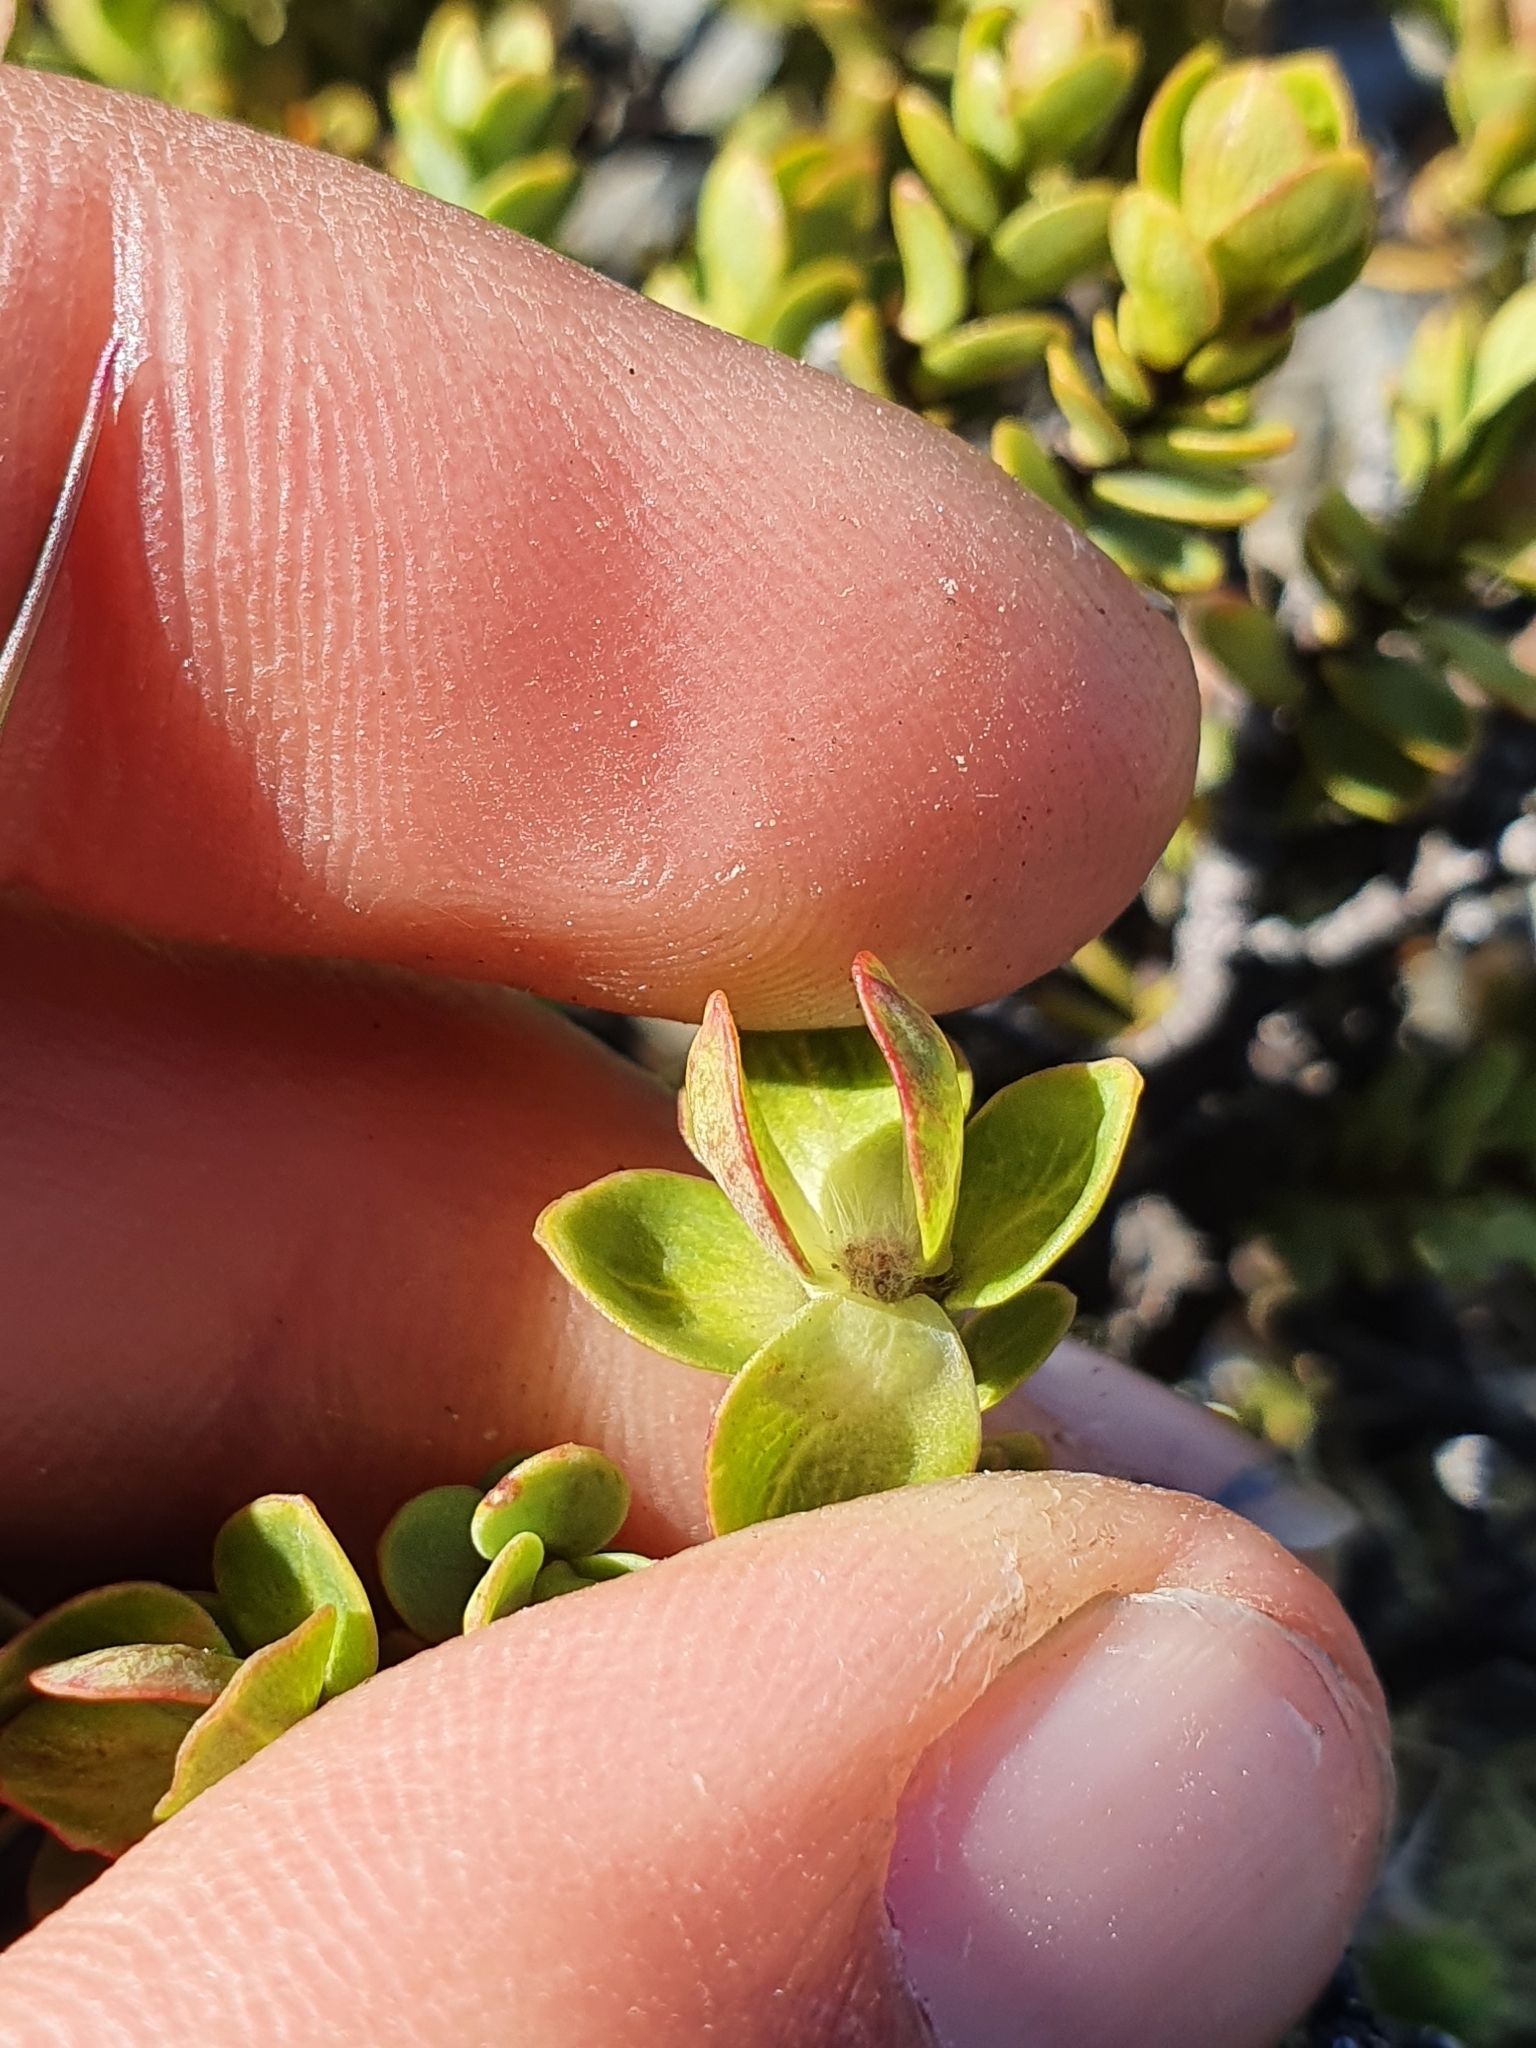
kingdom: Plantae
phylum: Tracheophyta
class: Magnoliopsida
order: Malvales
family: Thymelaeaceae
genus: Pimelea
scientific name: Pimelea traversii
